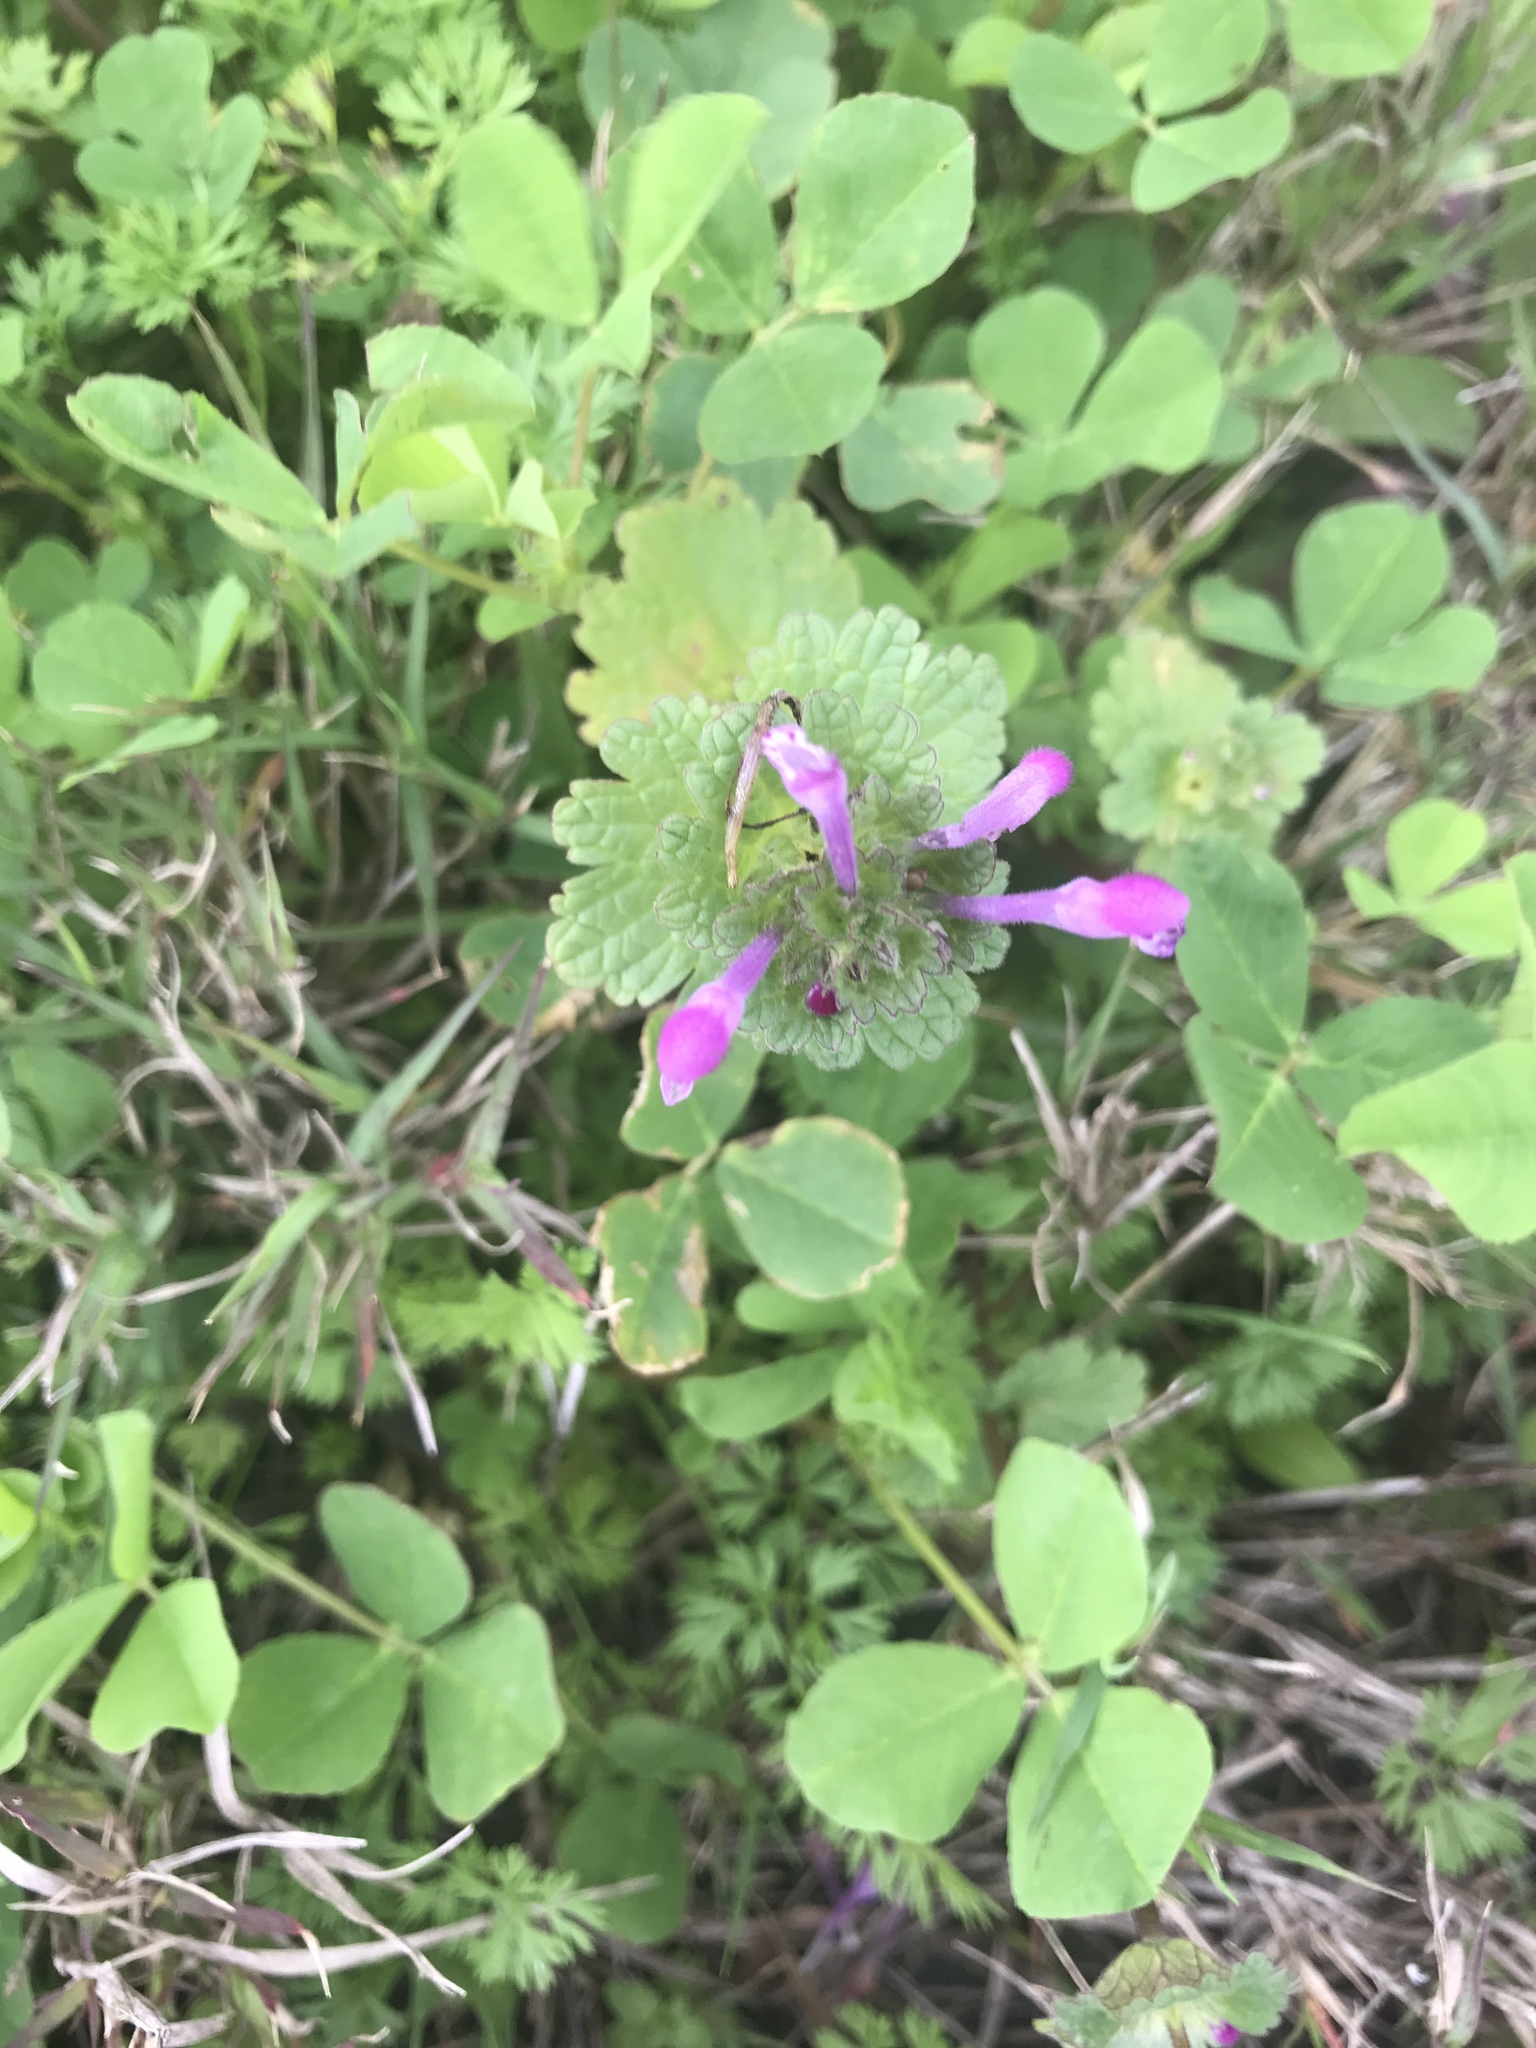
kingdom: Plantae
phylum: Tracheophyta
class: Magnoliopsida
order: Lamiales
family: Lamiaceae
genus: Lamium
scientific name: Lamium amplexicaule
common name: Henbit dead-nettle
